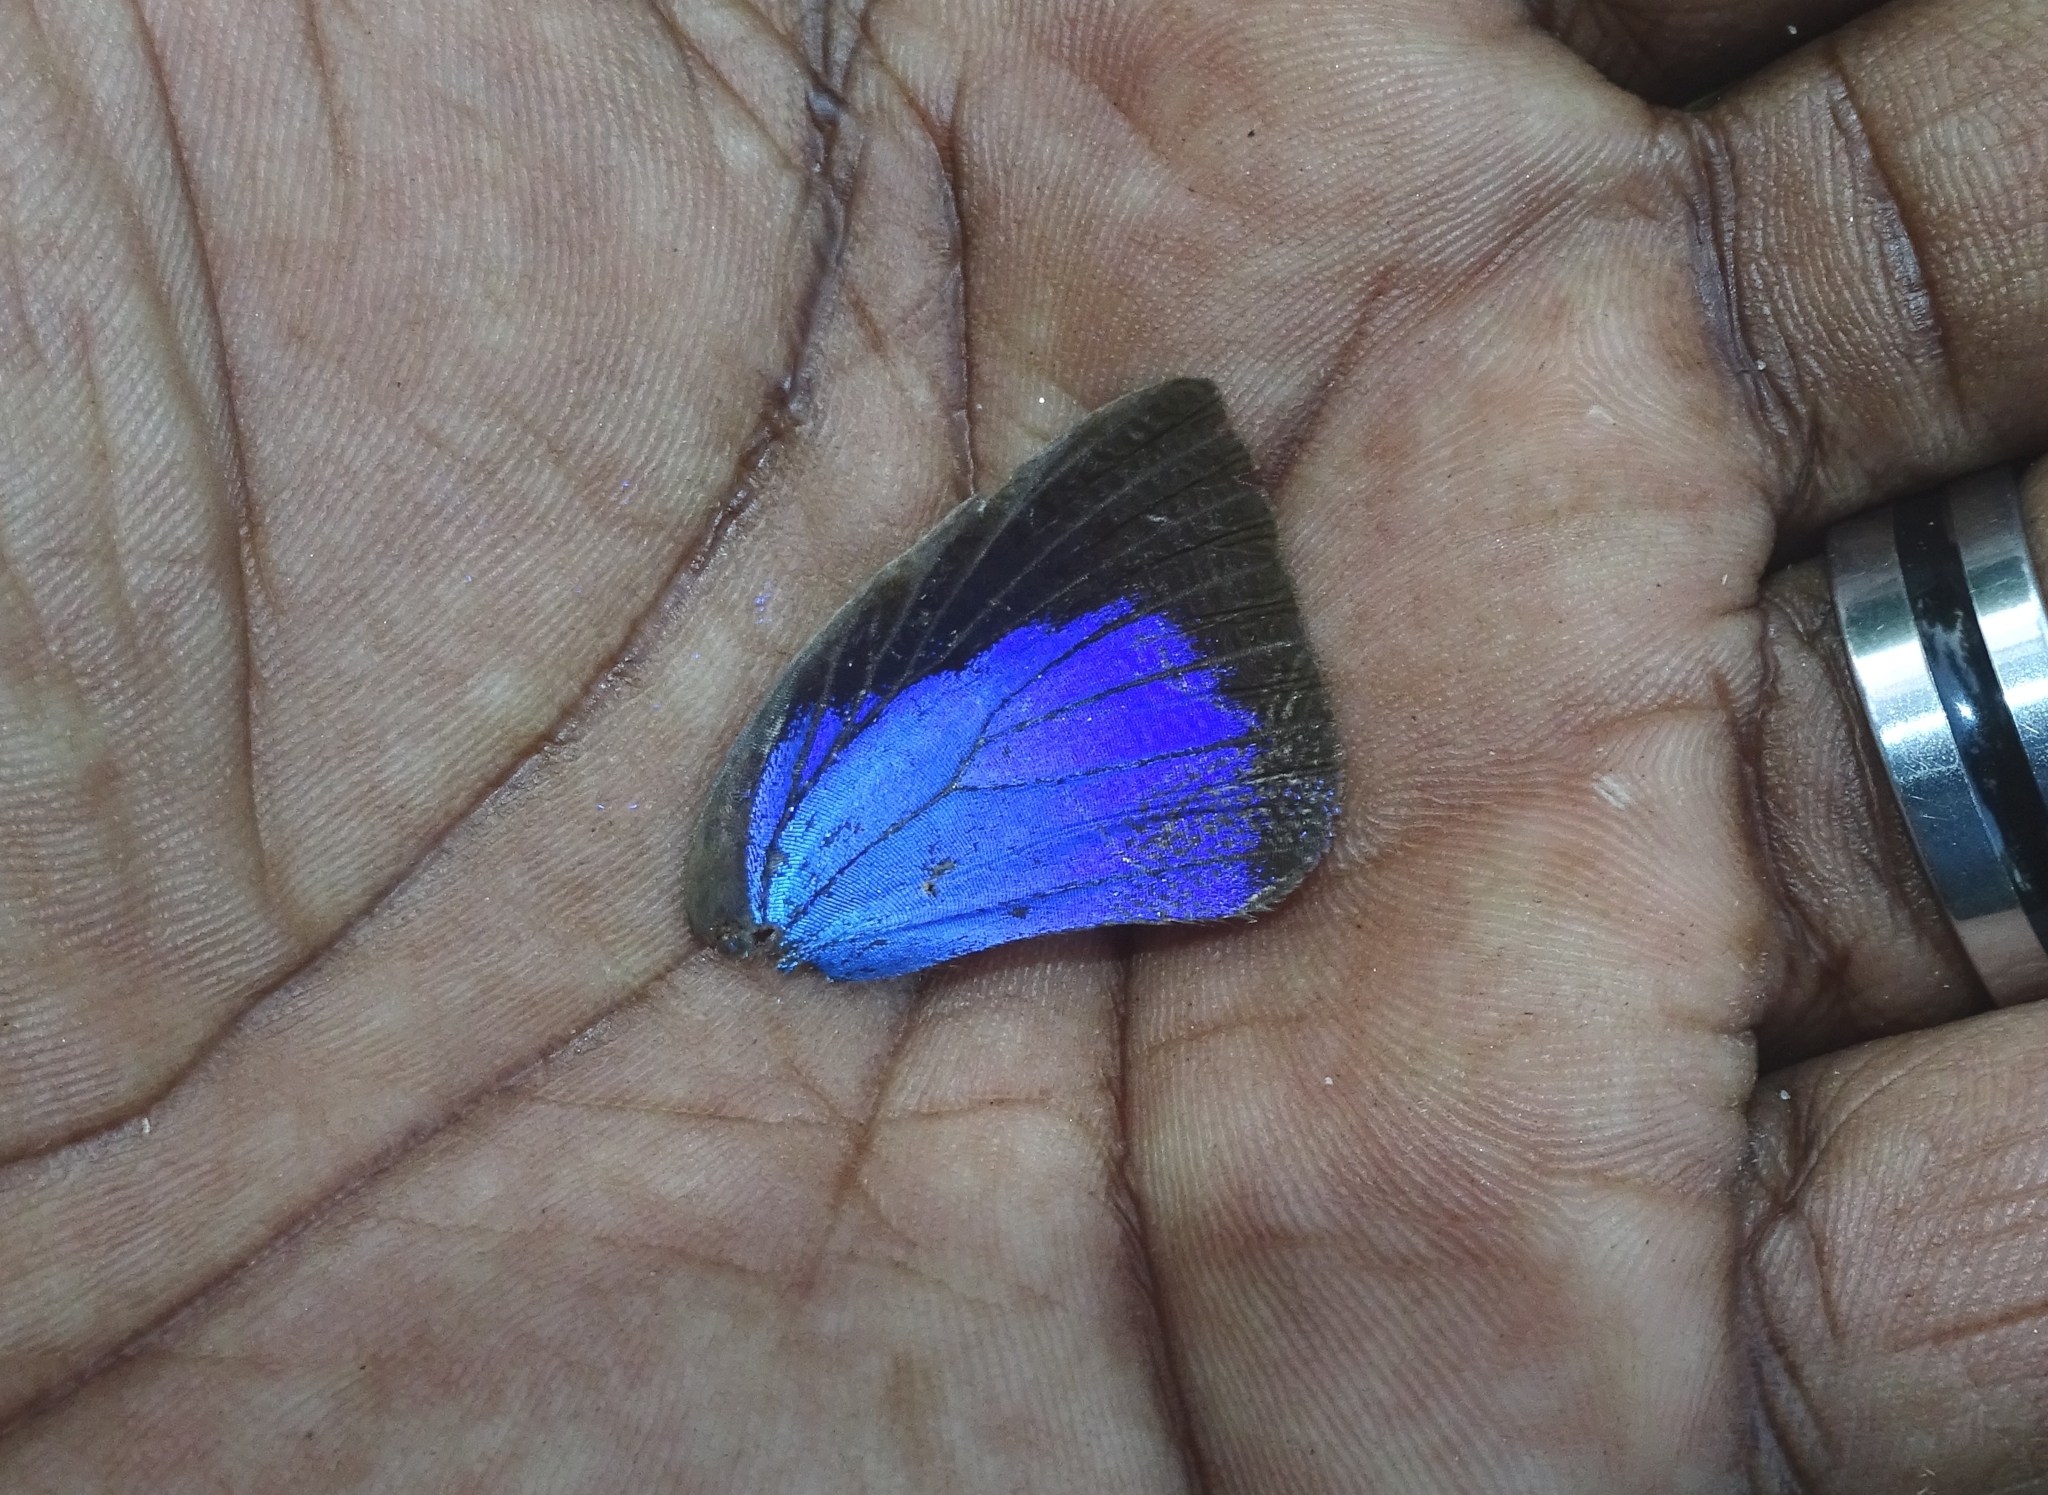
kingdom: Animalia
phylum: Arthropoda
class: Insecta
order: Lepidoptera
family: Lycaenidae
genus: Arhopala
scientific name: Arhopala centaurus
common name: Dull oak-blue
